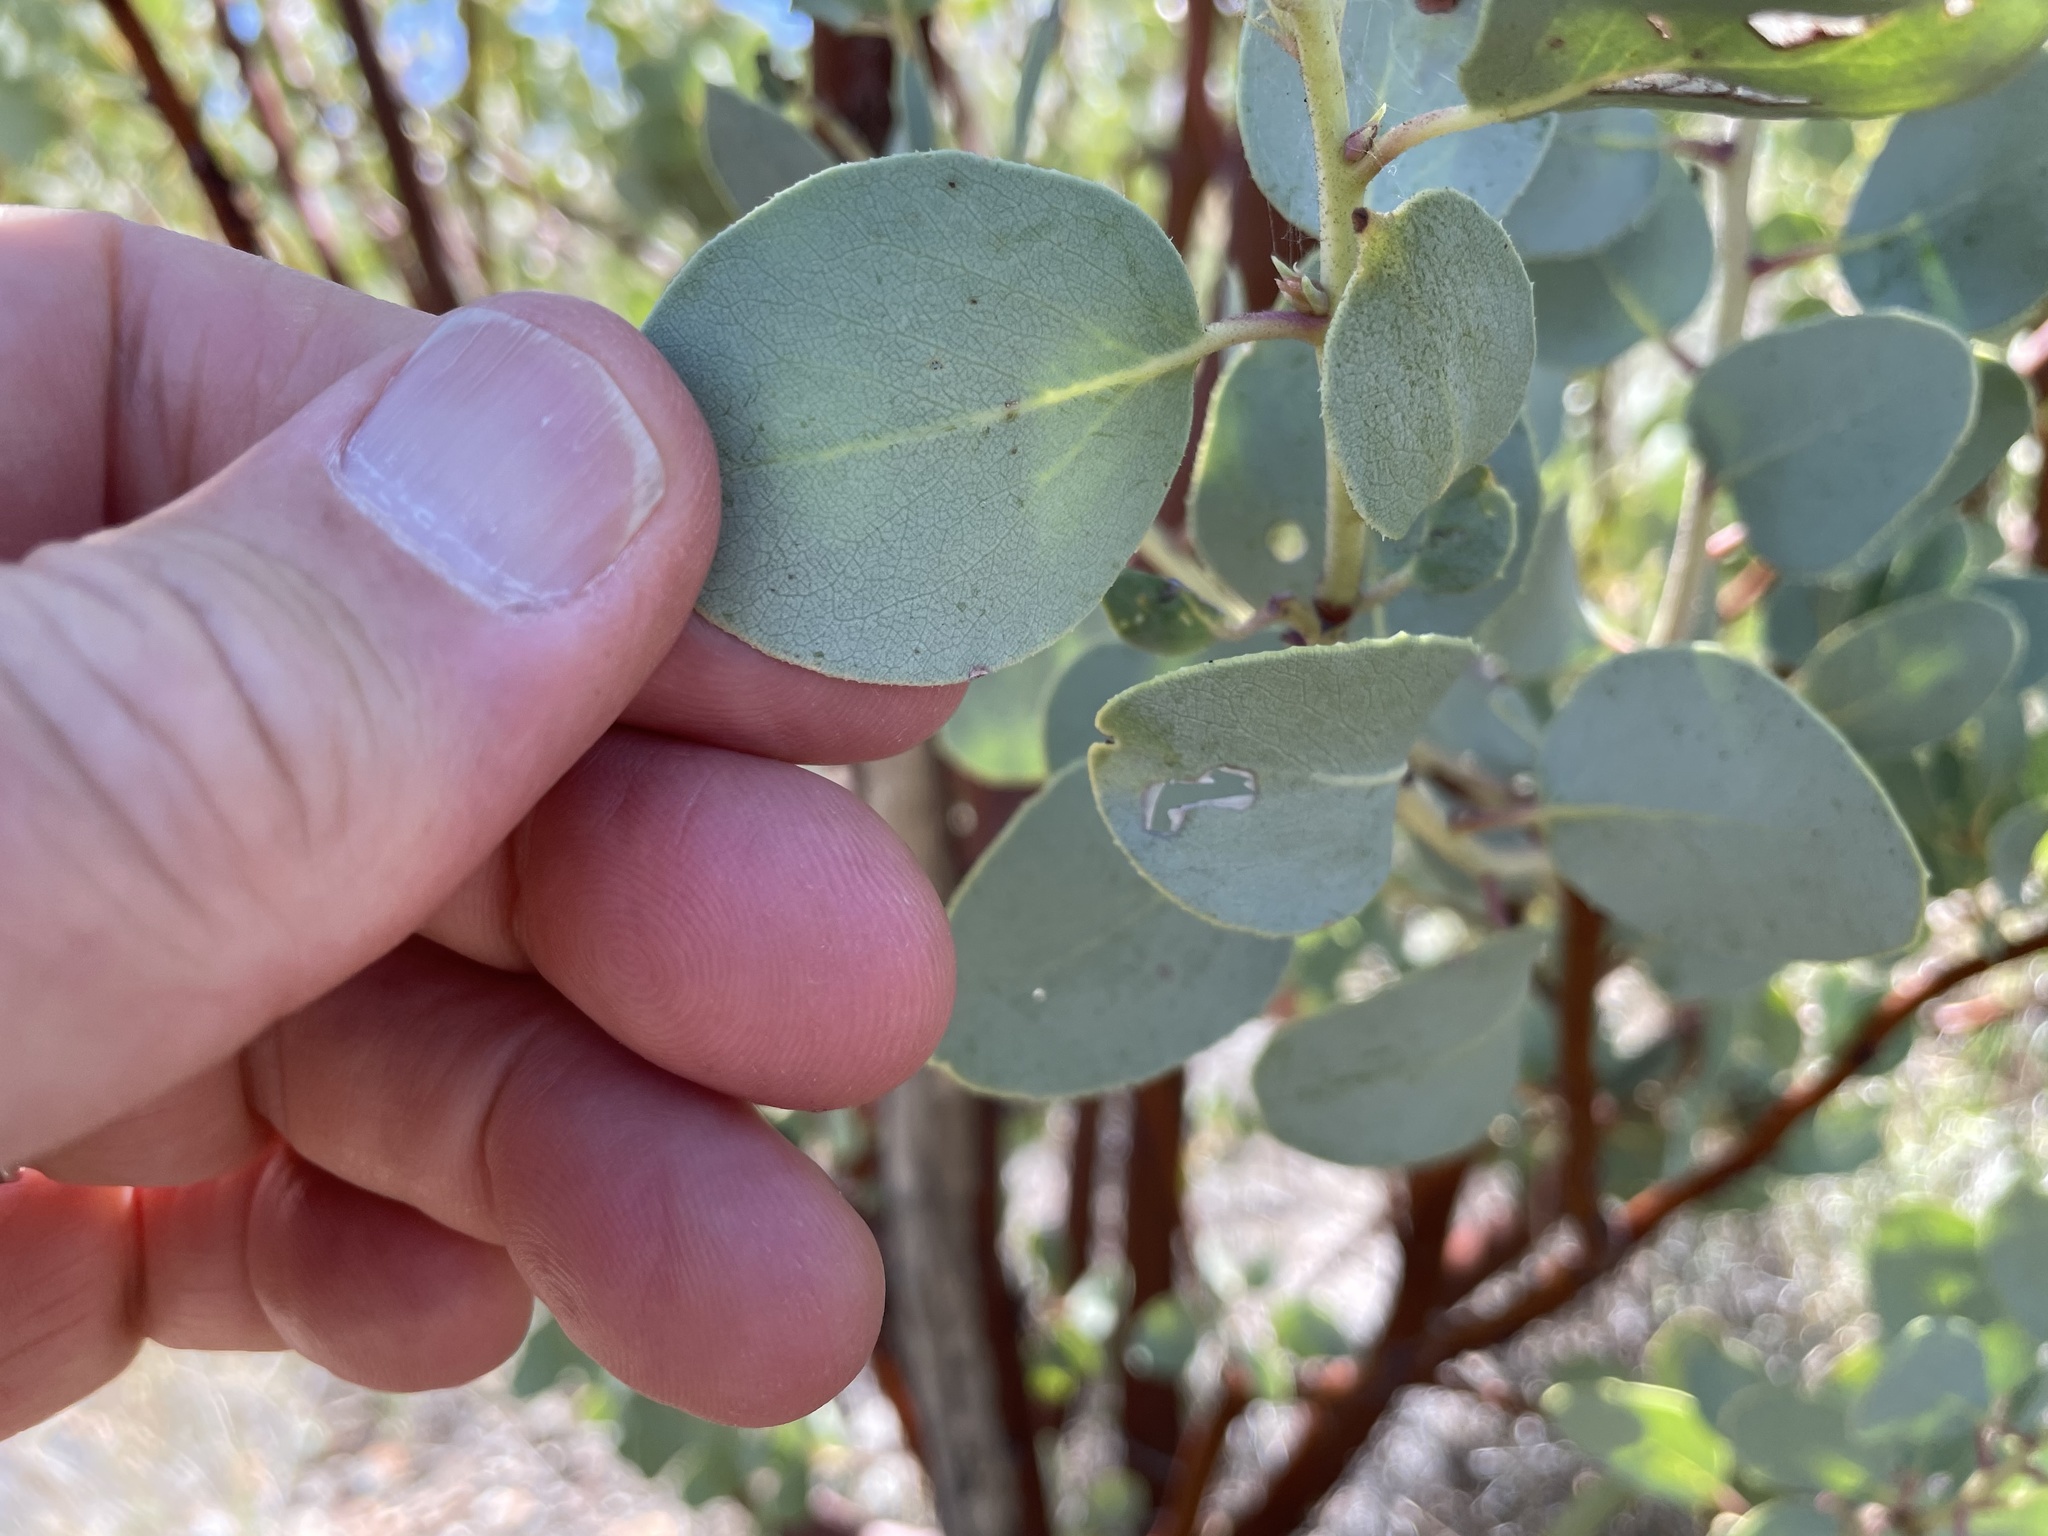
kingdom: Plantae
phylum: Tracheophyta
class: Magnoliopsida
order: Ericales
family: Ericaceae
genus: Arctostaphylos
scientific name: Arctostaphylos glauca
